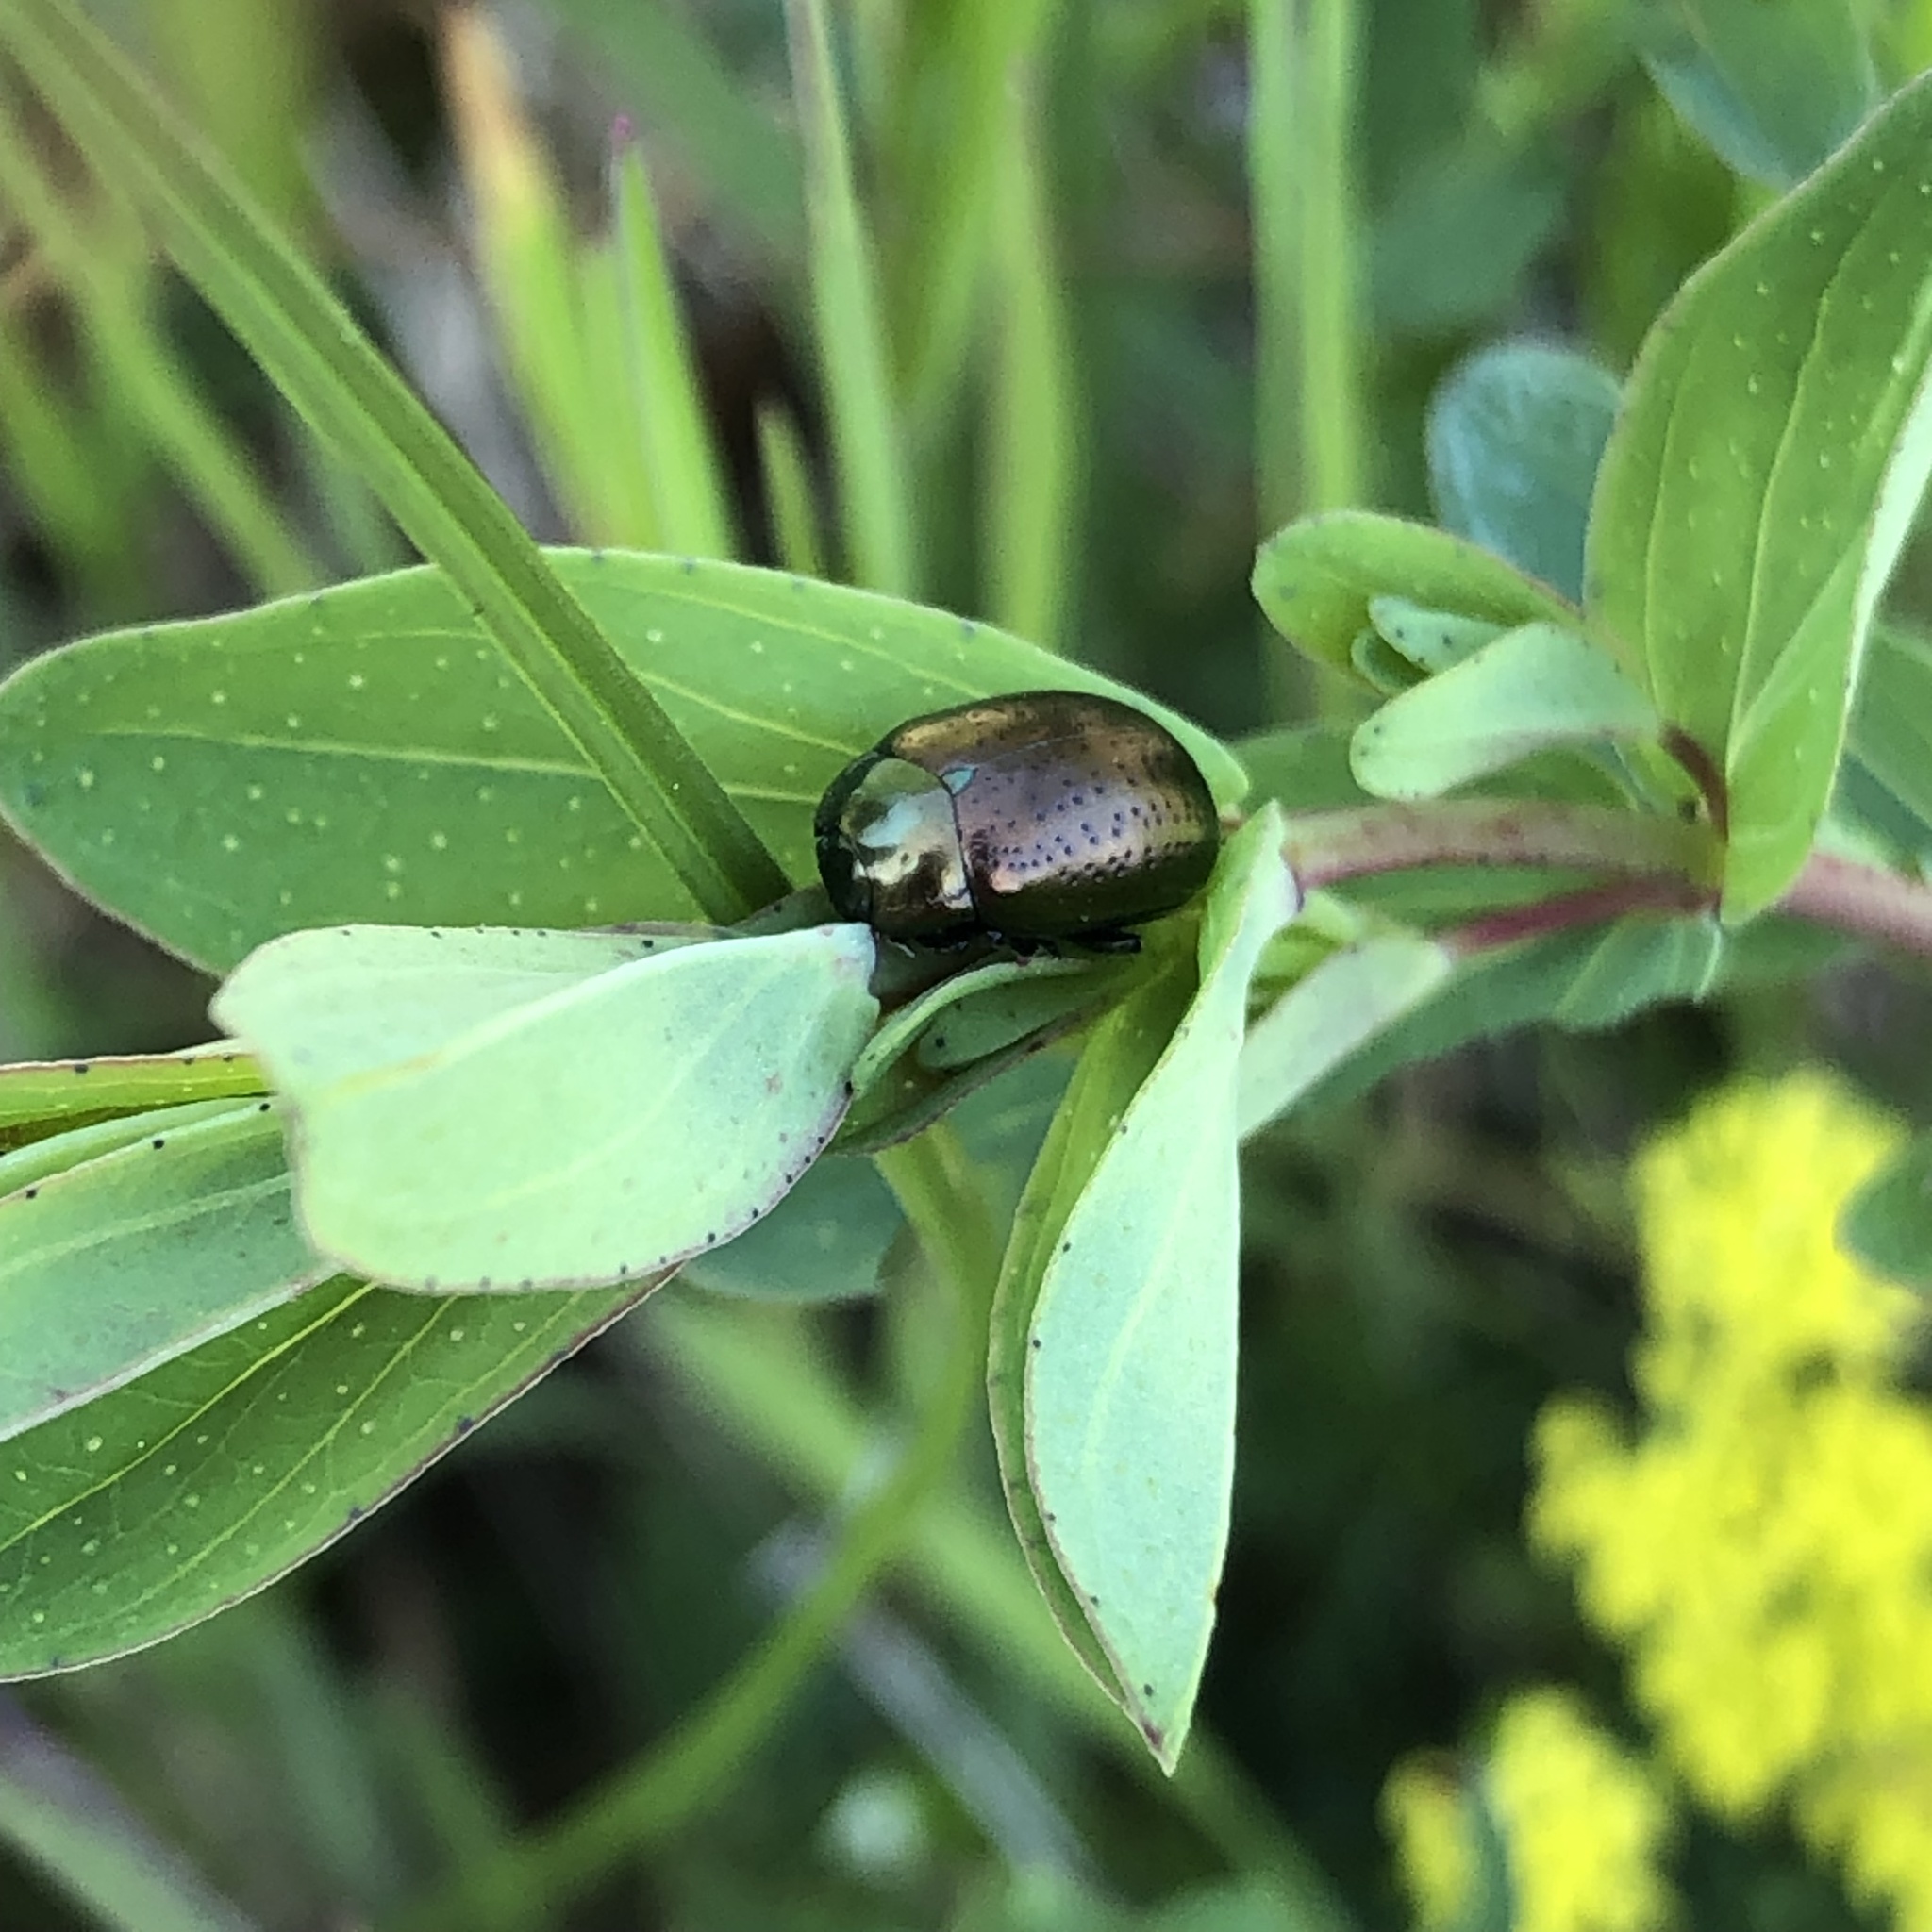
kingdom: Animalia
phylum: Arthropoda
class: Insecta
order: Coleoptera
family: Chrysomelidae
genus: Chrysolina
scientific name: Chrysolina hyperici
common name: St. johnswort beetle
